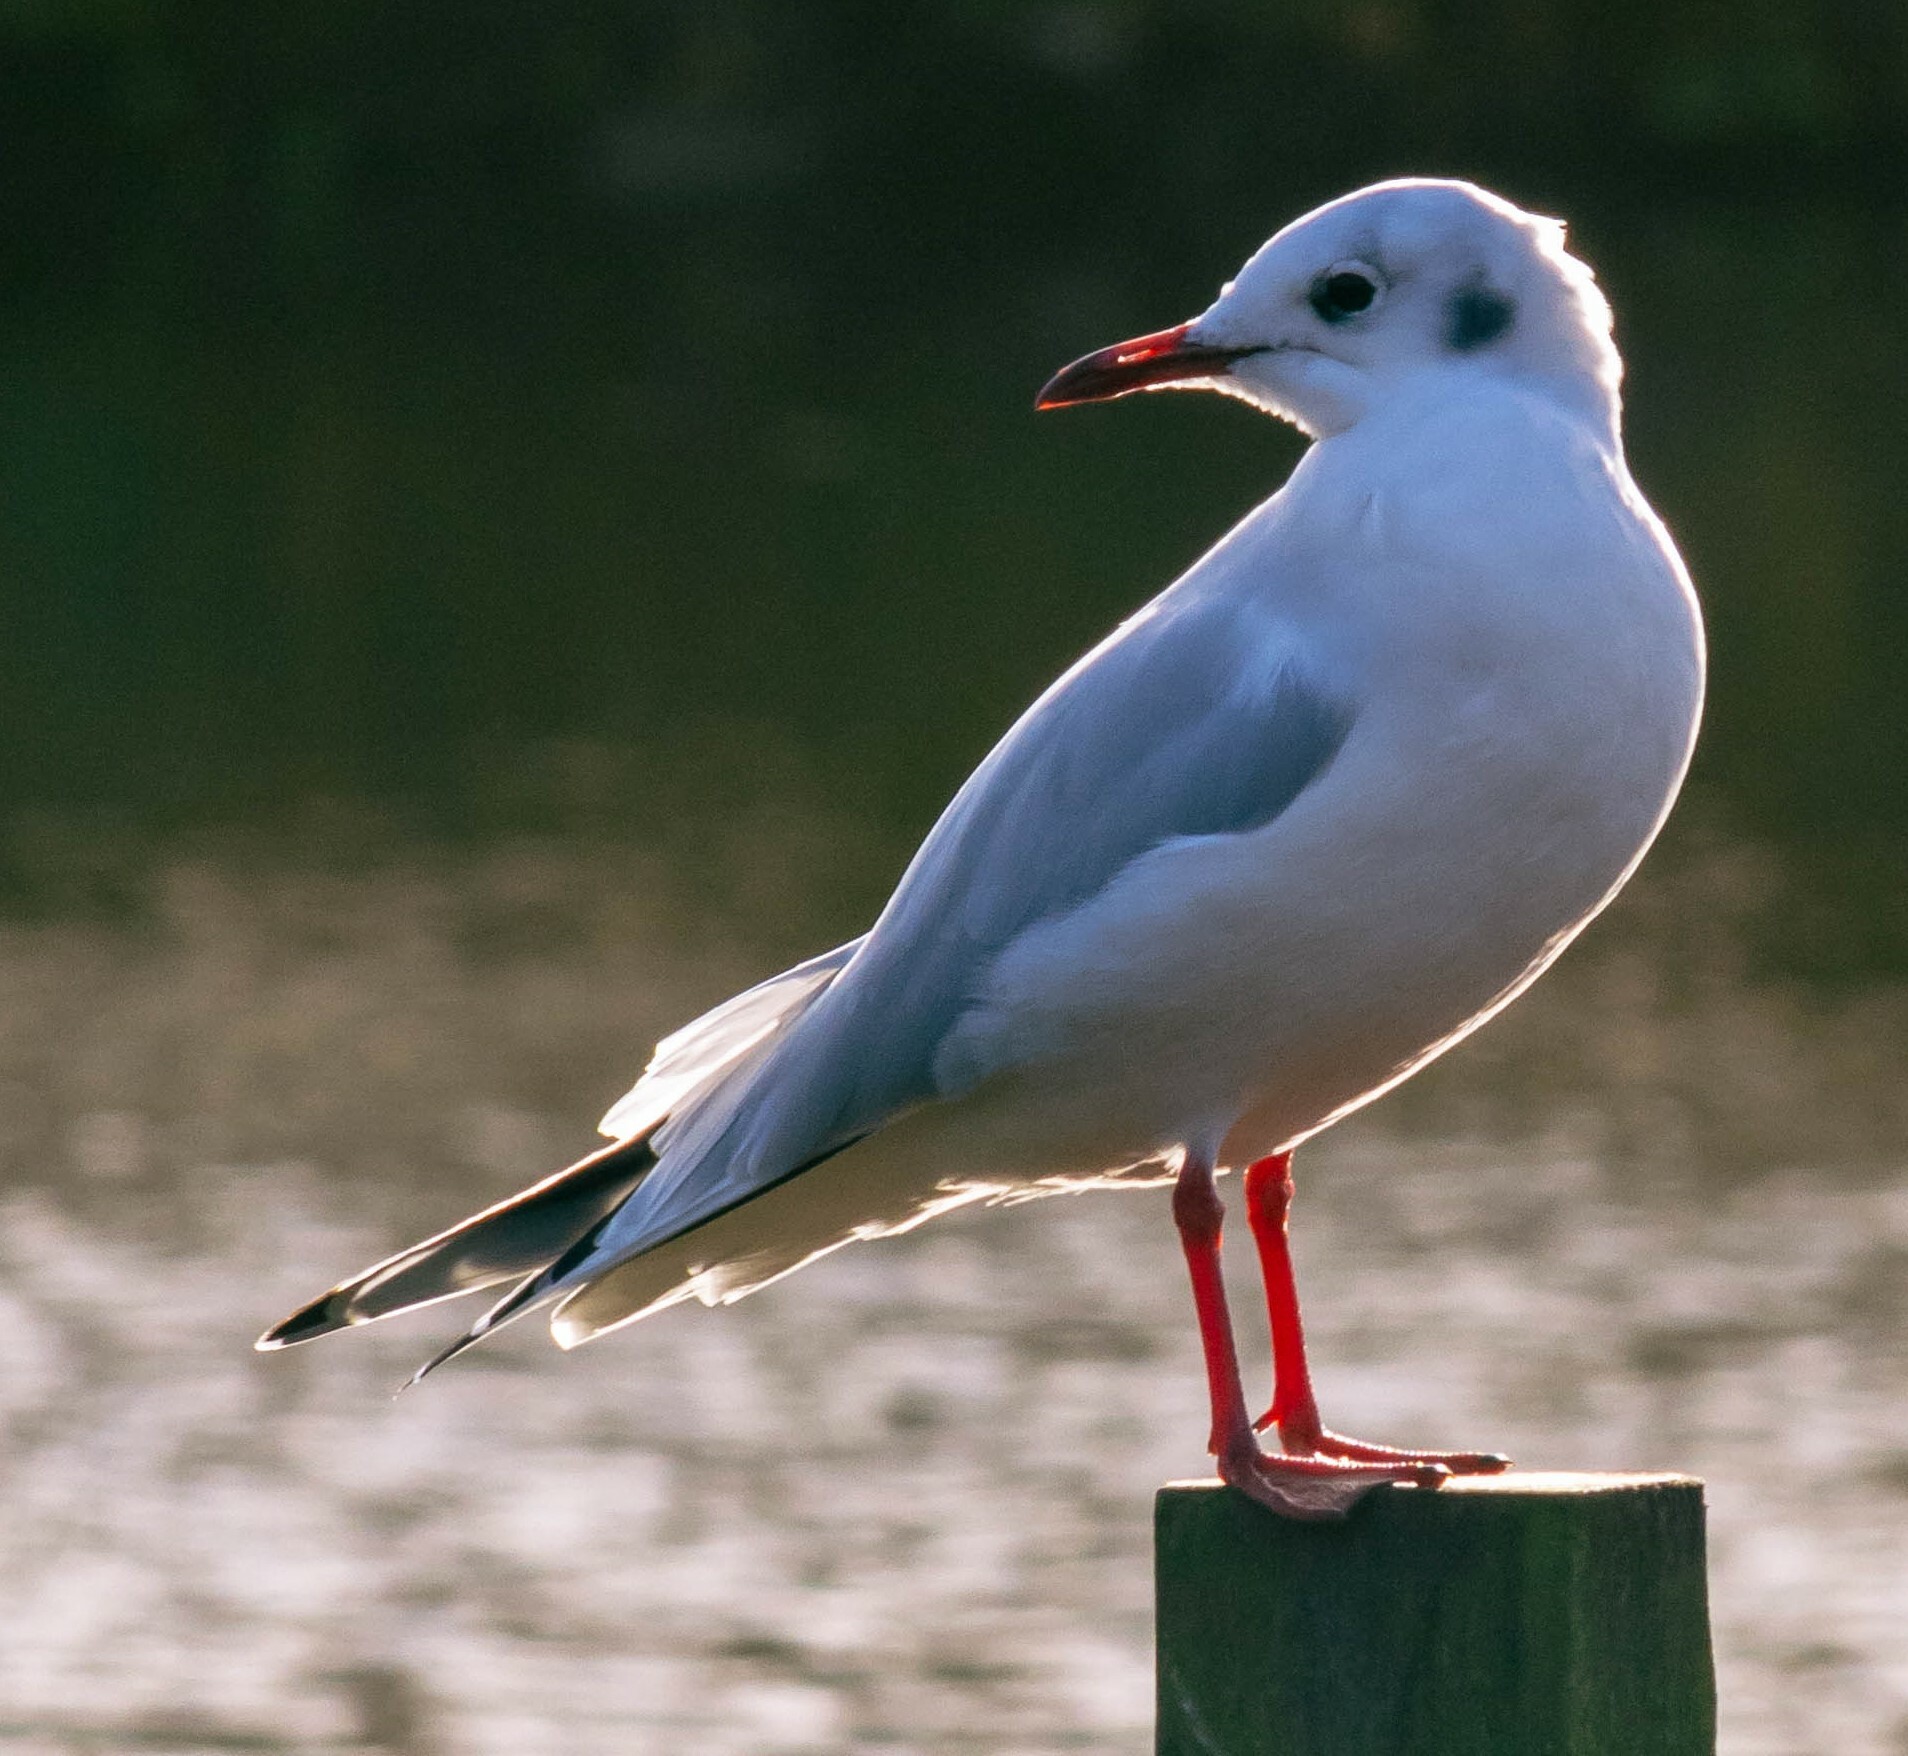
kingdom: Animalia
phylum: Chordata
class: Aves
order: Charadriiformes
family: Laridae
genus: Chroicocephalus
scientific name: Chroicocephalus ridibundus
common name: Black-headed gull
